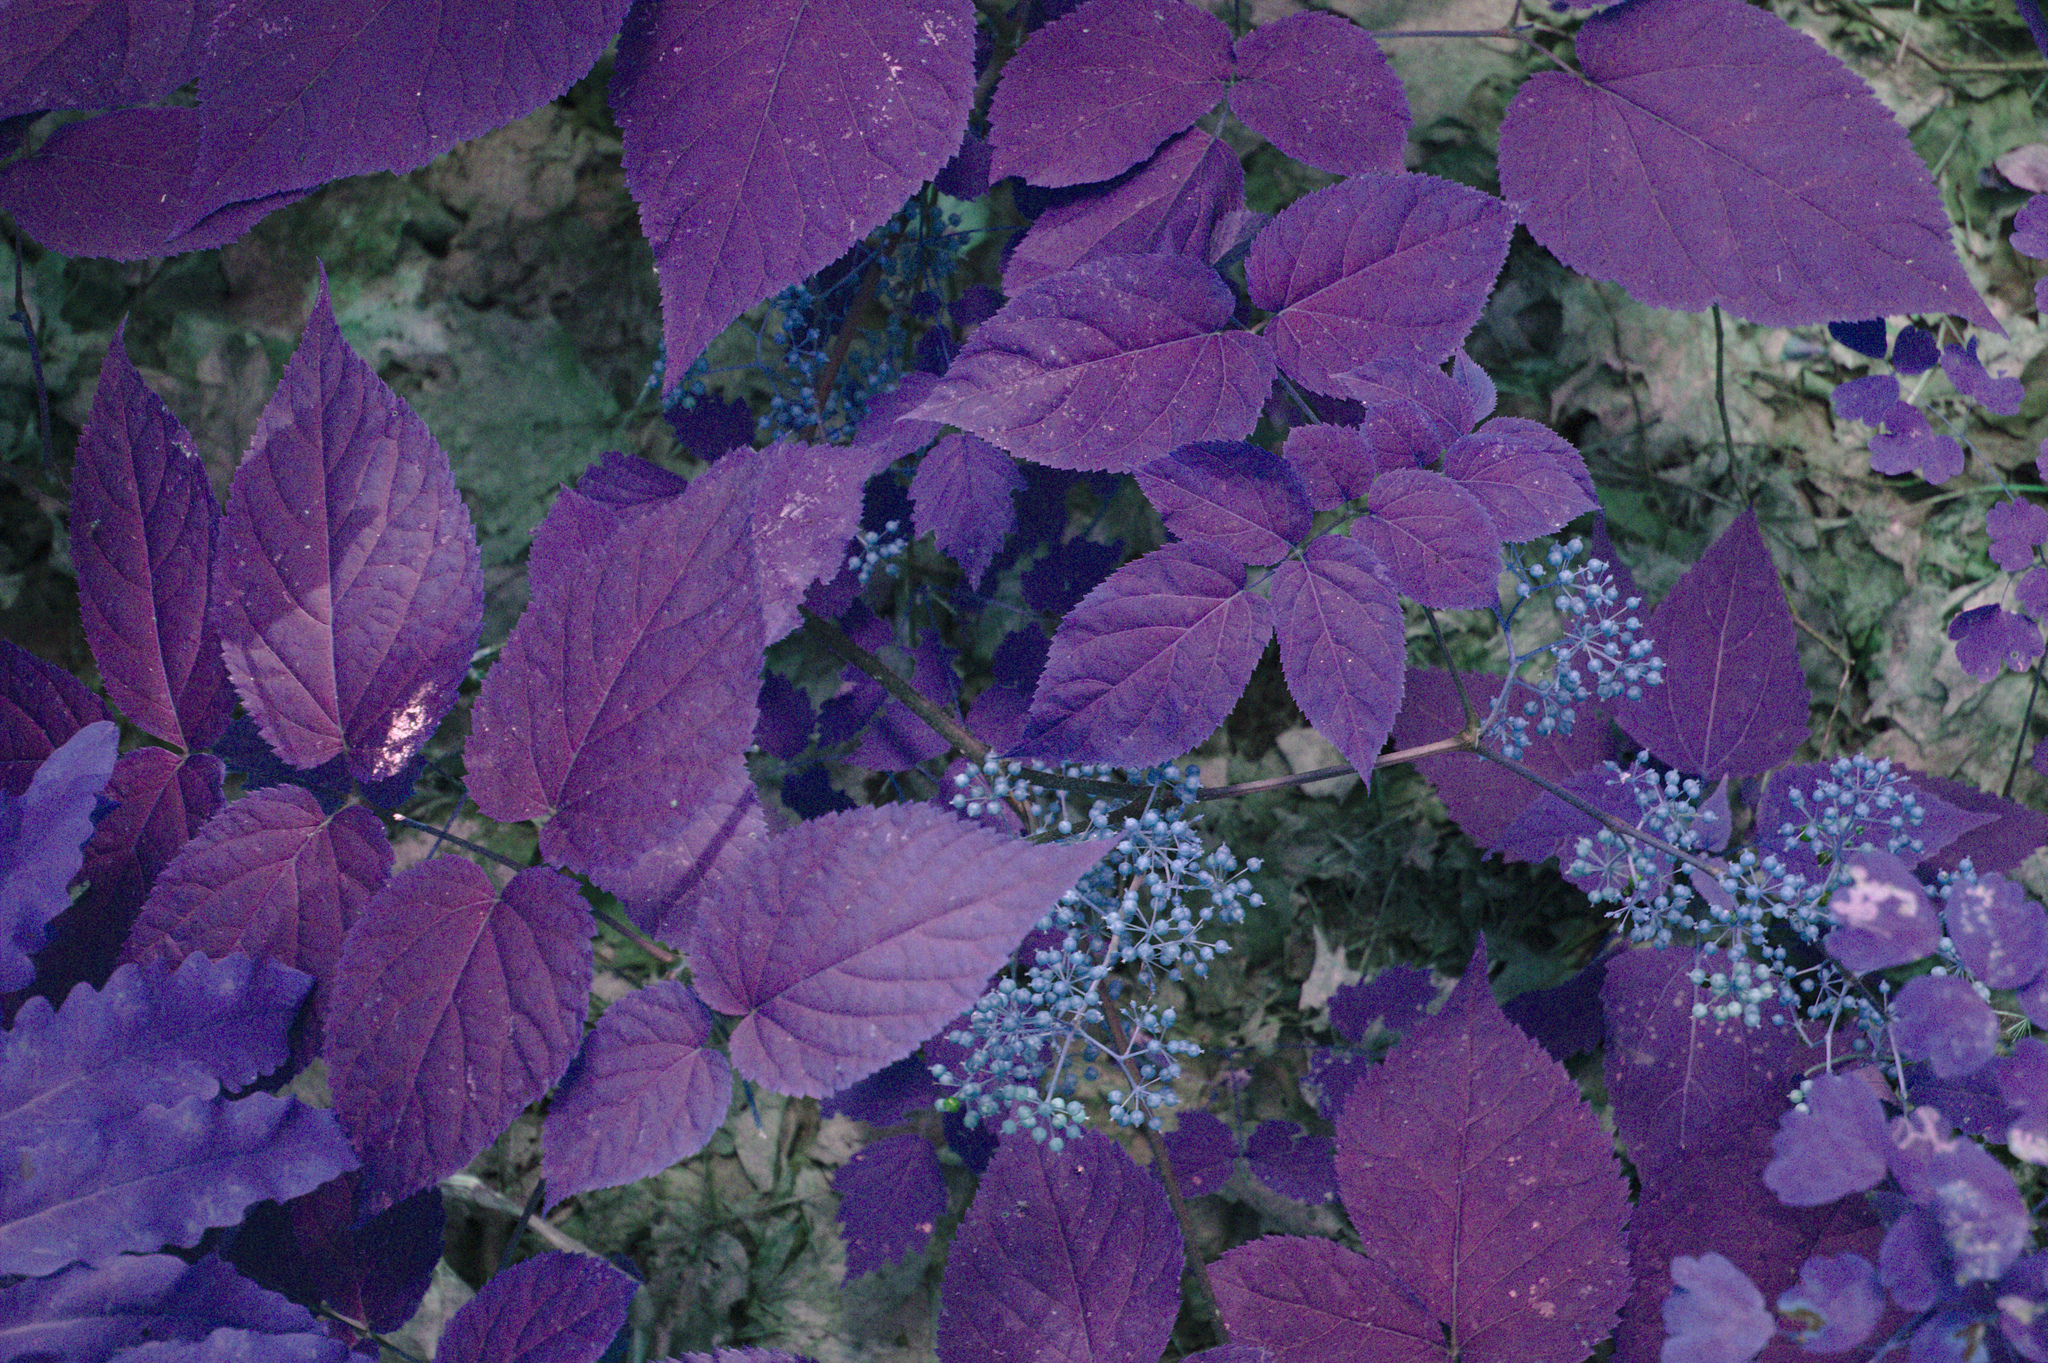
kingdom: Plantae
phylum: Tracheophyta
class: Magnoliopsida
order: Apiales
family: Araliaceae
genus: Aralia
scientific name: Aralia racemosa
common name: American-spikenard
